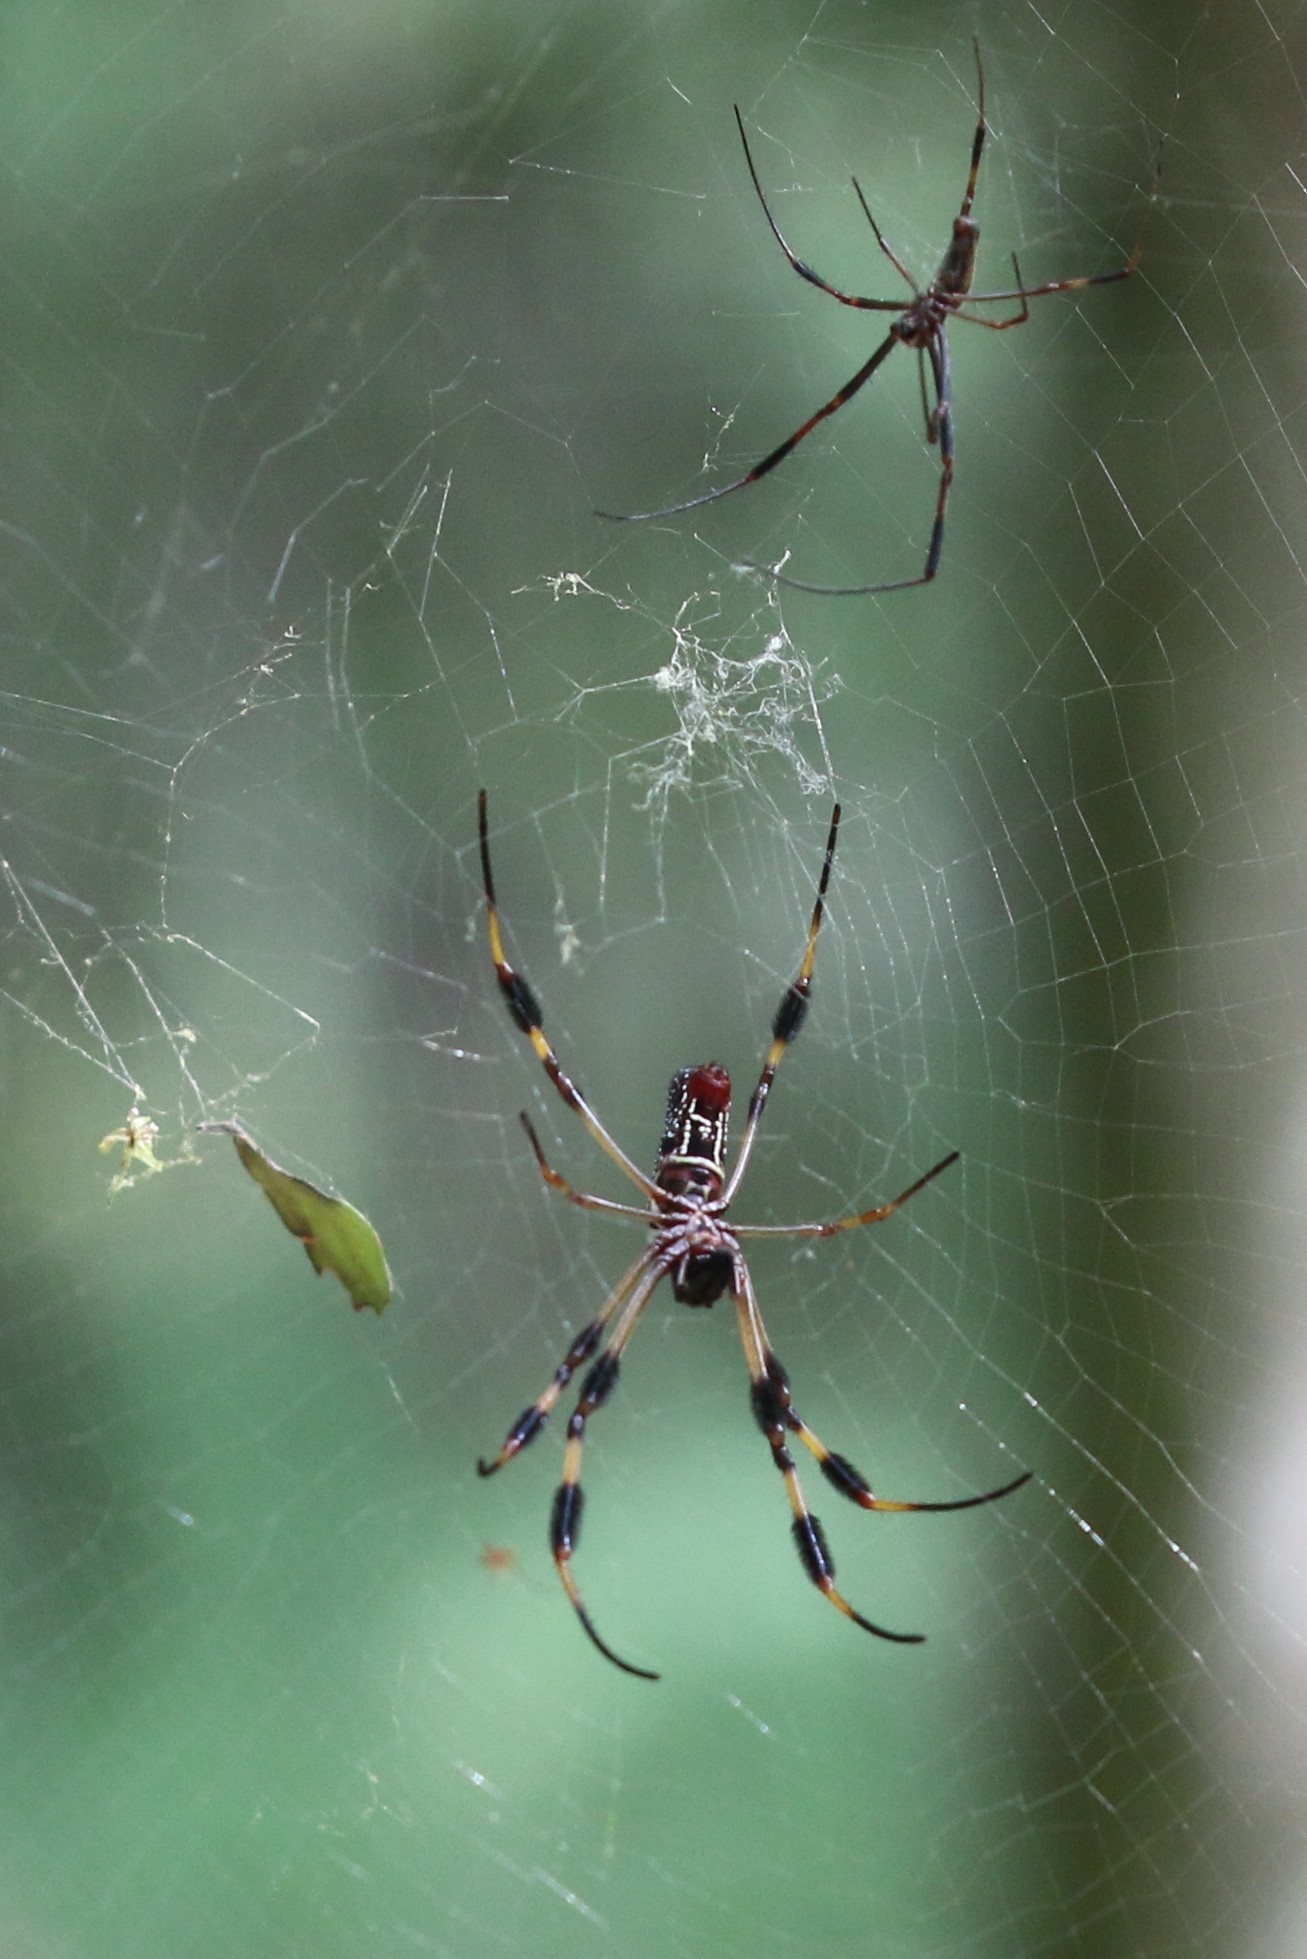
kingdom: Animalia
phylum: Arthropoda
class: Arachnida
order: Araneae
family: Araneidae
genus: Trichonephila
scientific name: Trichonephila clavipes
